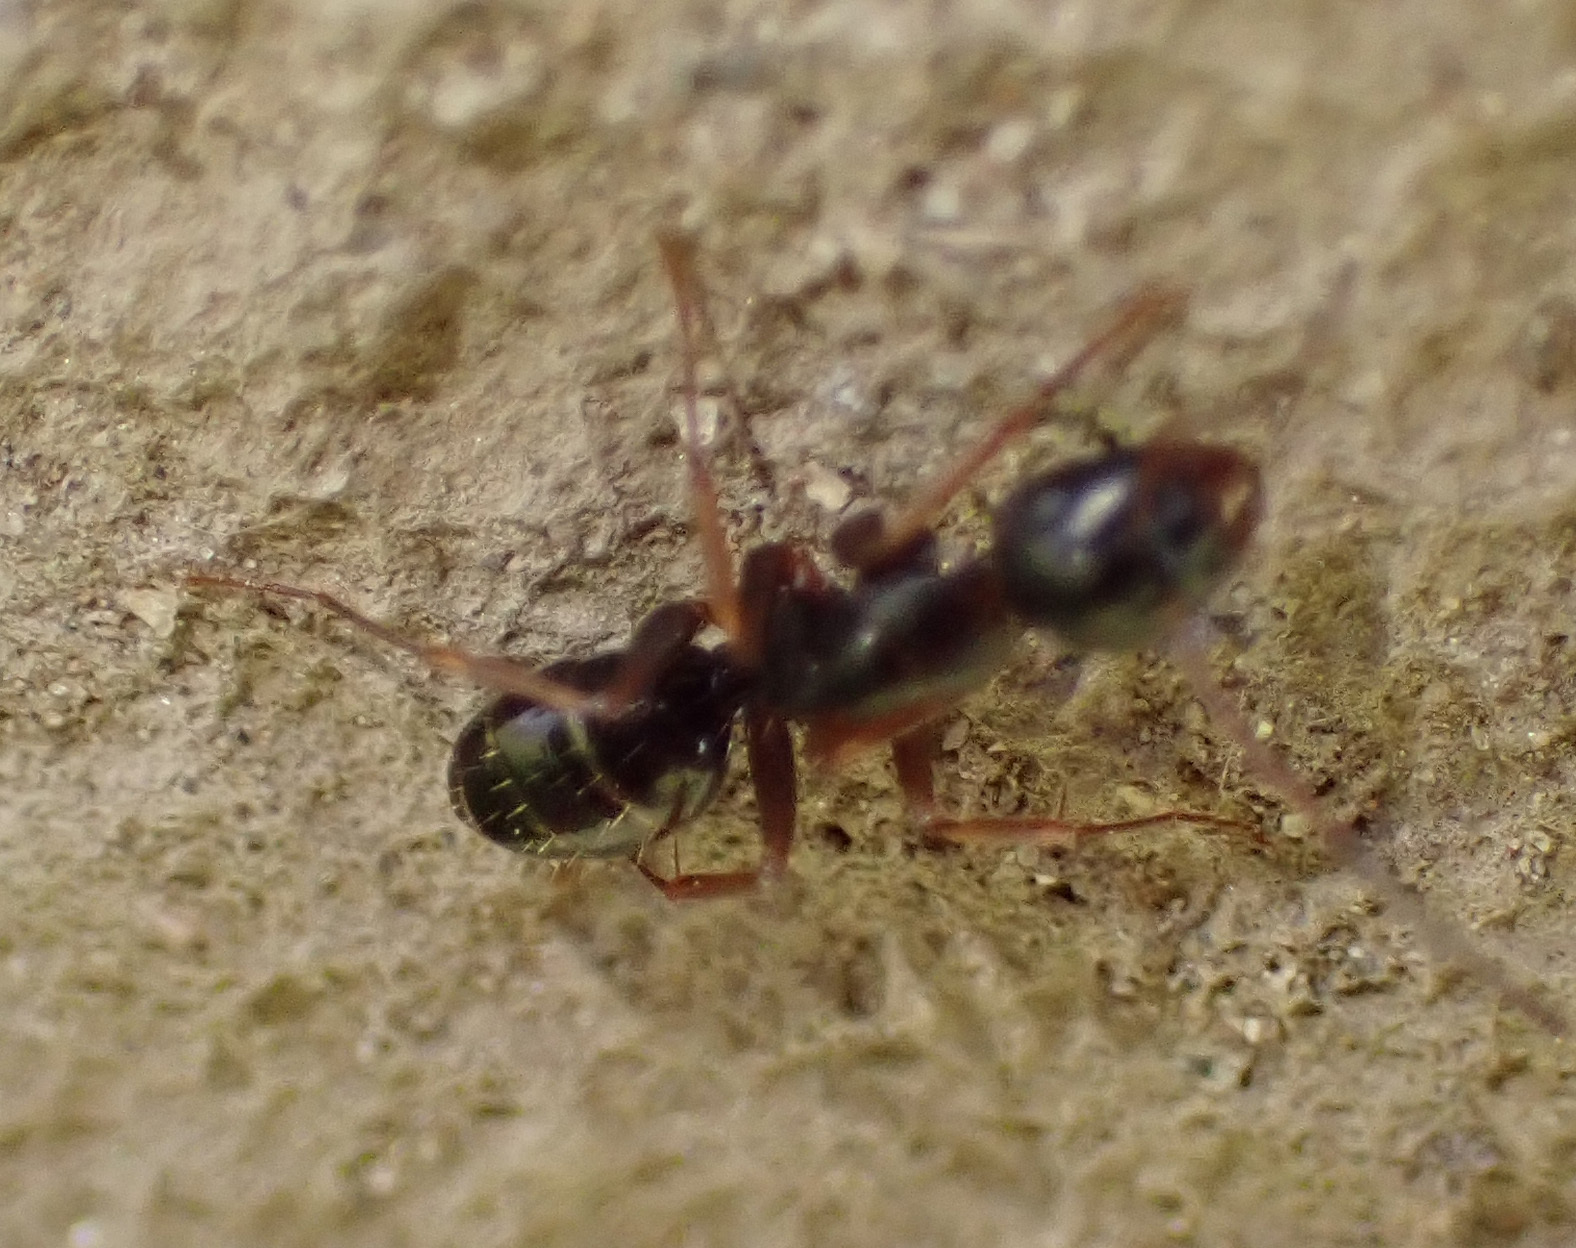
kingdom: Animalia
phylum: Arthropoda
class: Insecta
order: Hymenoptera
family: Formicidae
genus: Camponotus
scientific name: Camponotus fallax
